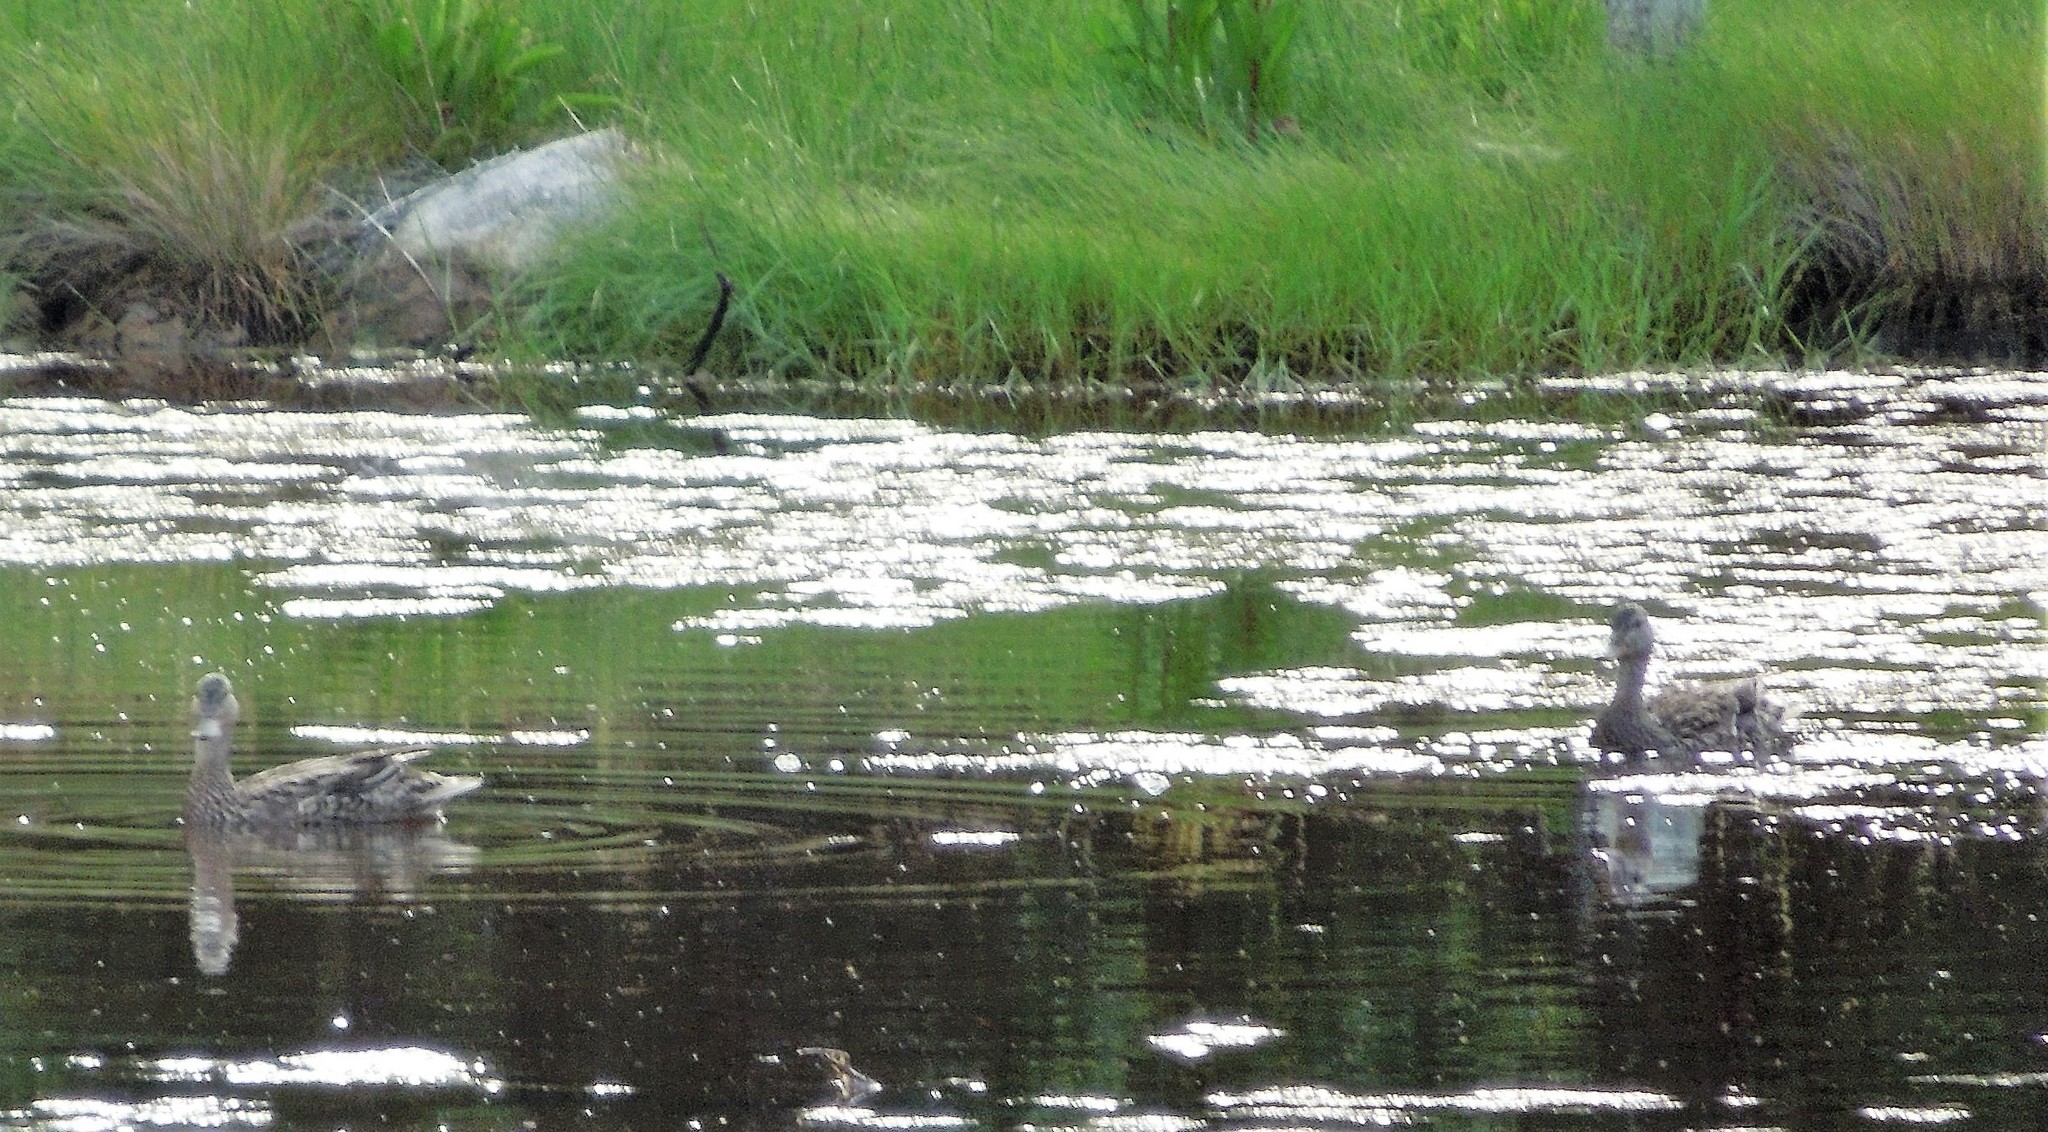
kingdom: Animalia
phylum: Chordata
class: Aves
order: Anseriformes
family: Anatidae
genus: Anas
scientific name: Anas platyrhynchos
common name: Mallard
